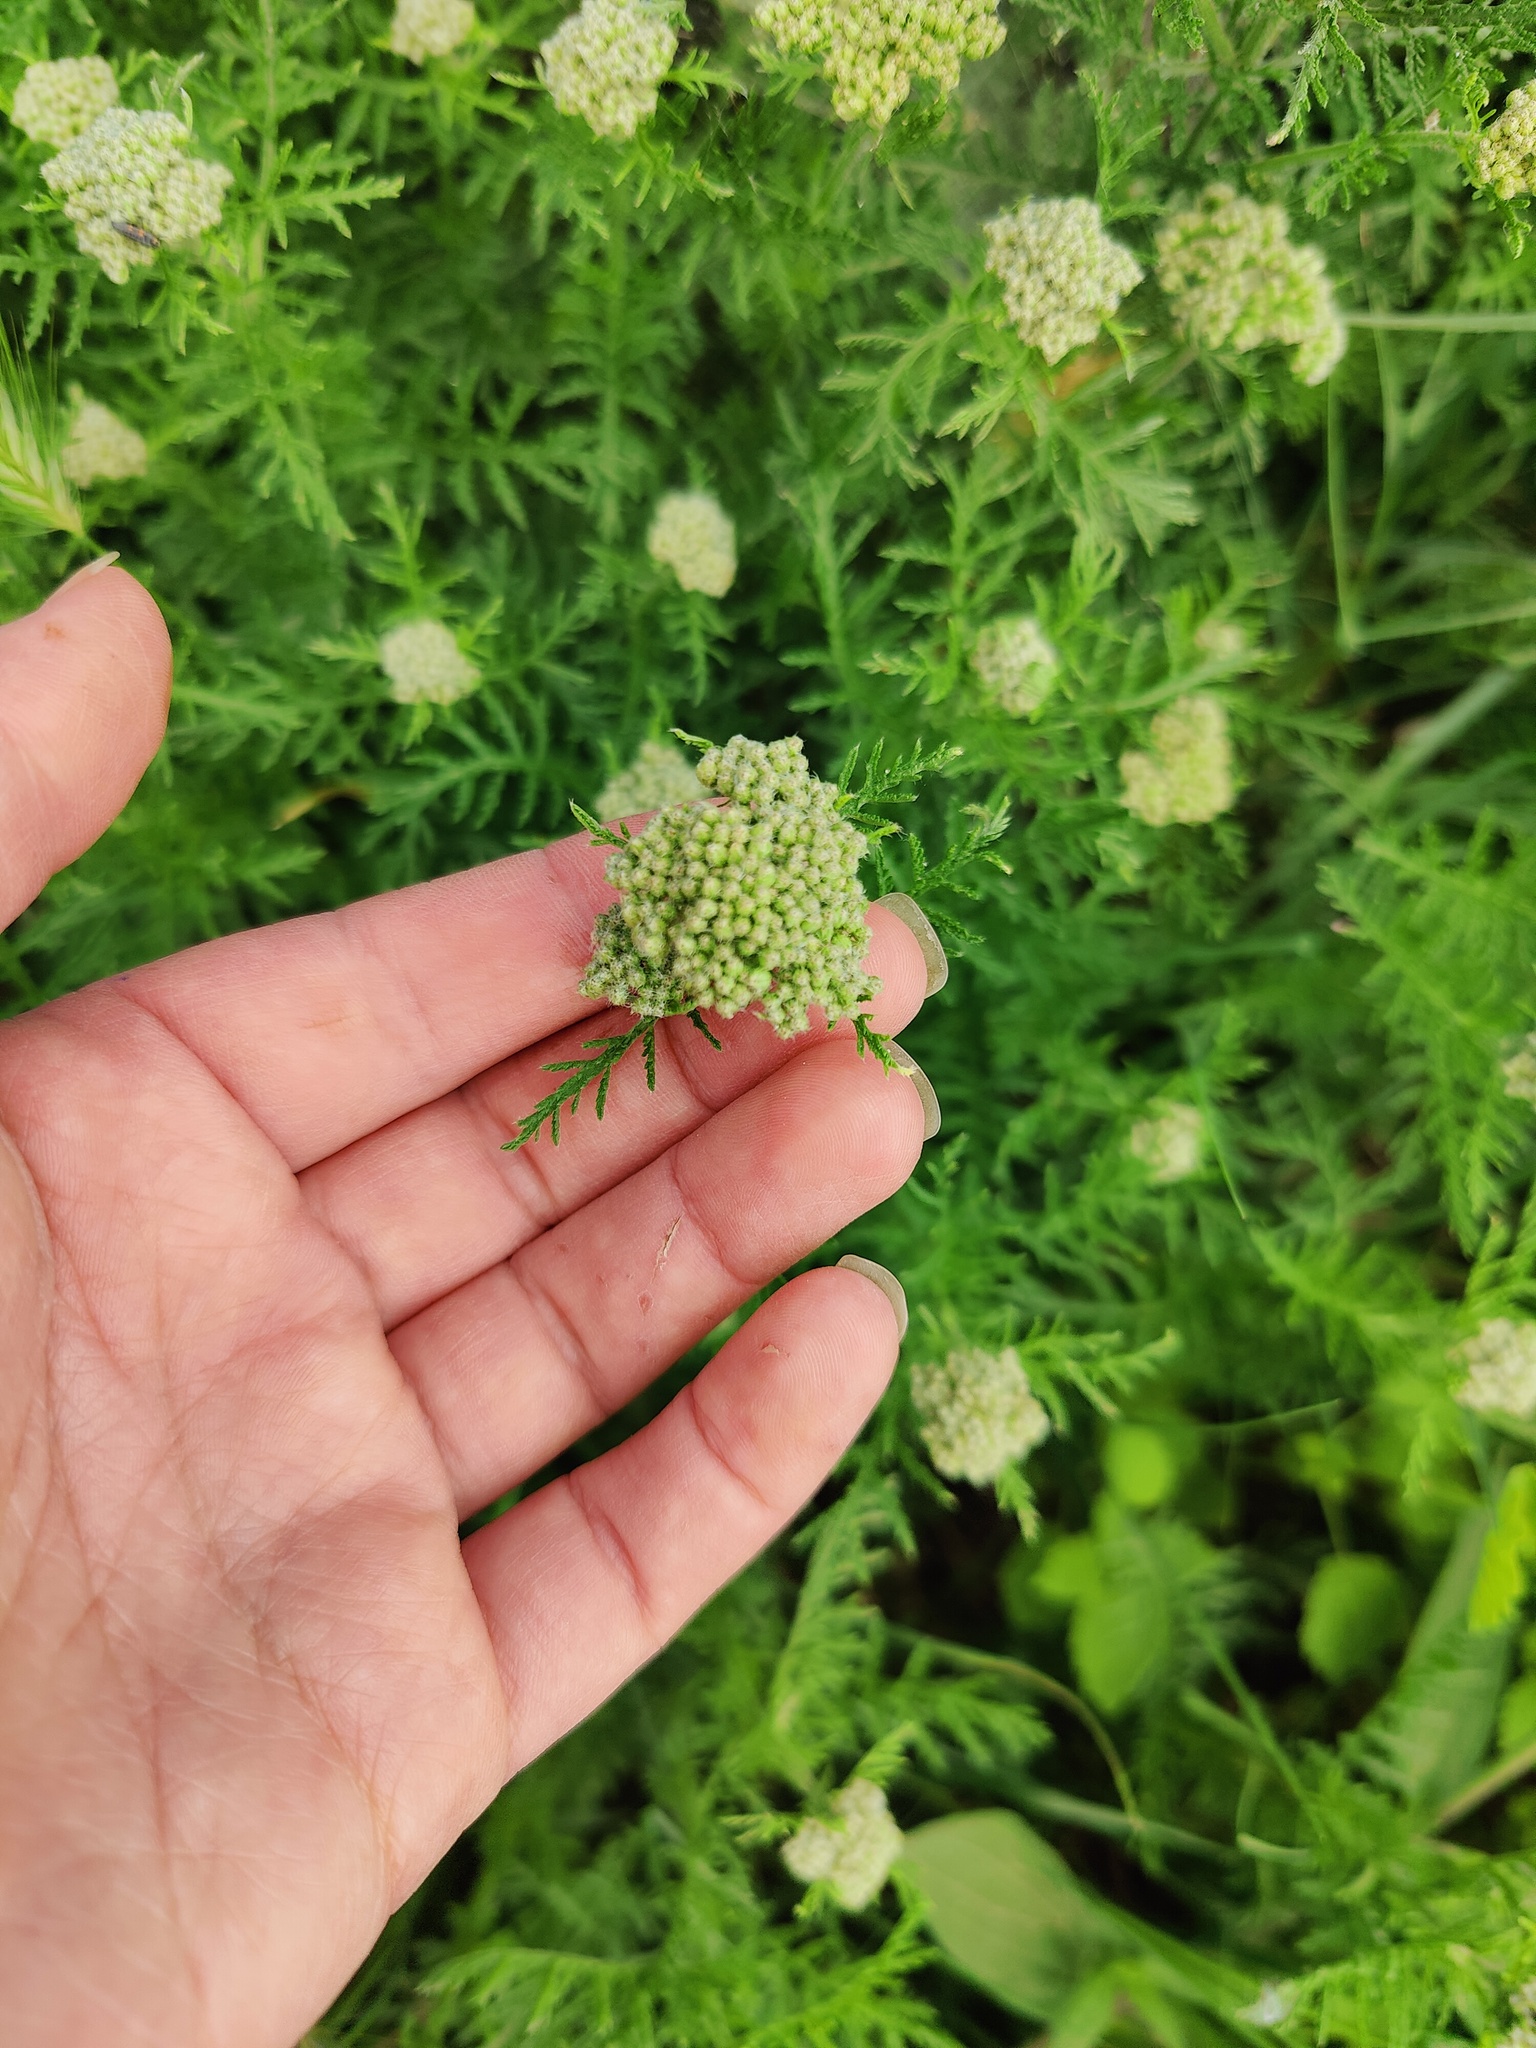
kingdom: Plantae
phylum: Tracheophyta
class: Magnoliopsida
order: Asterales
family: Asteraceae
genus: Achillea
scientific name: Achillea nobilis
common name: Noble yarrow
